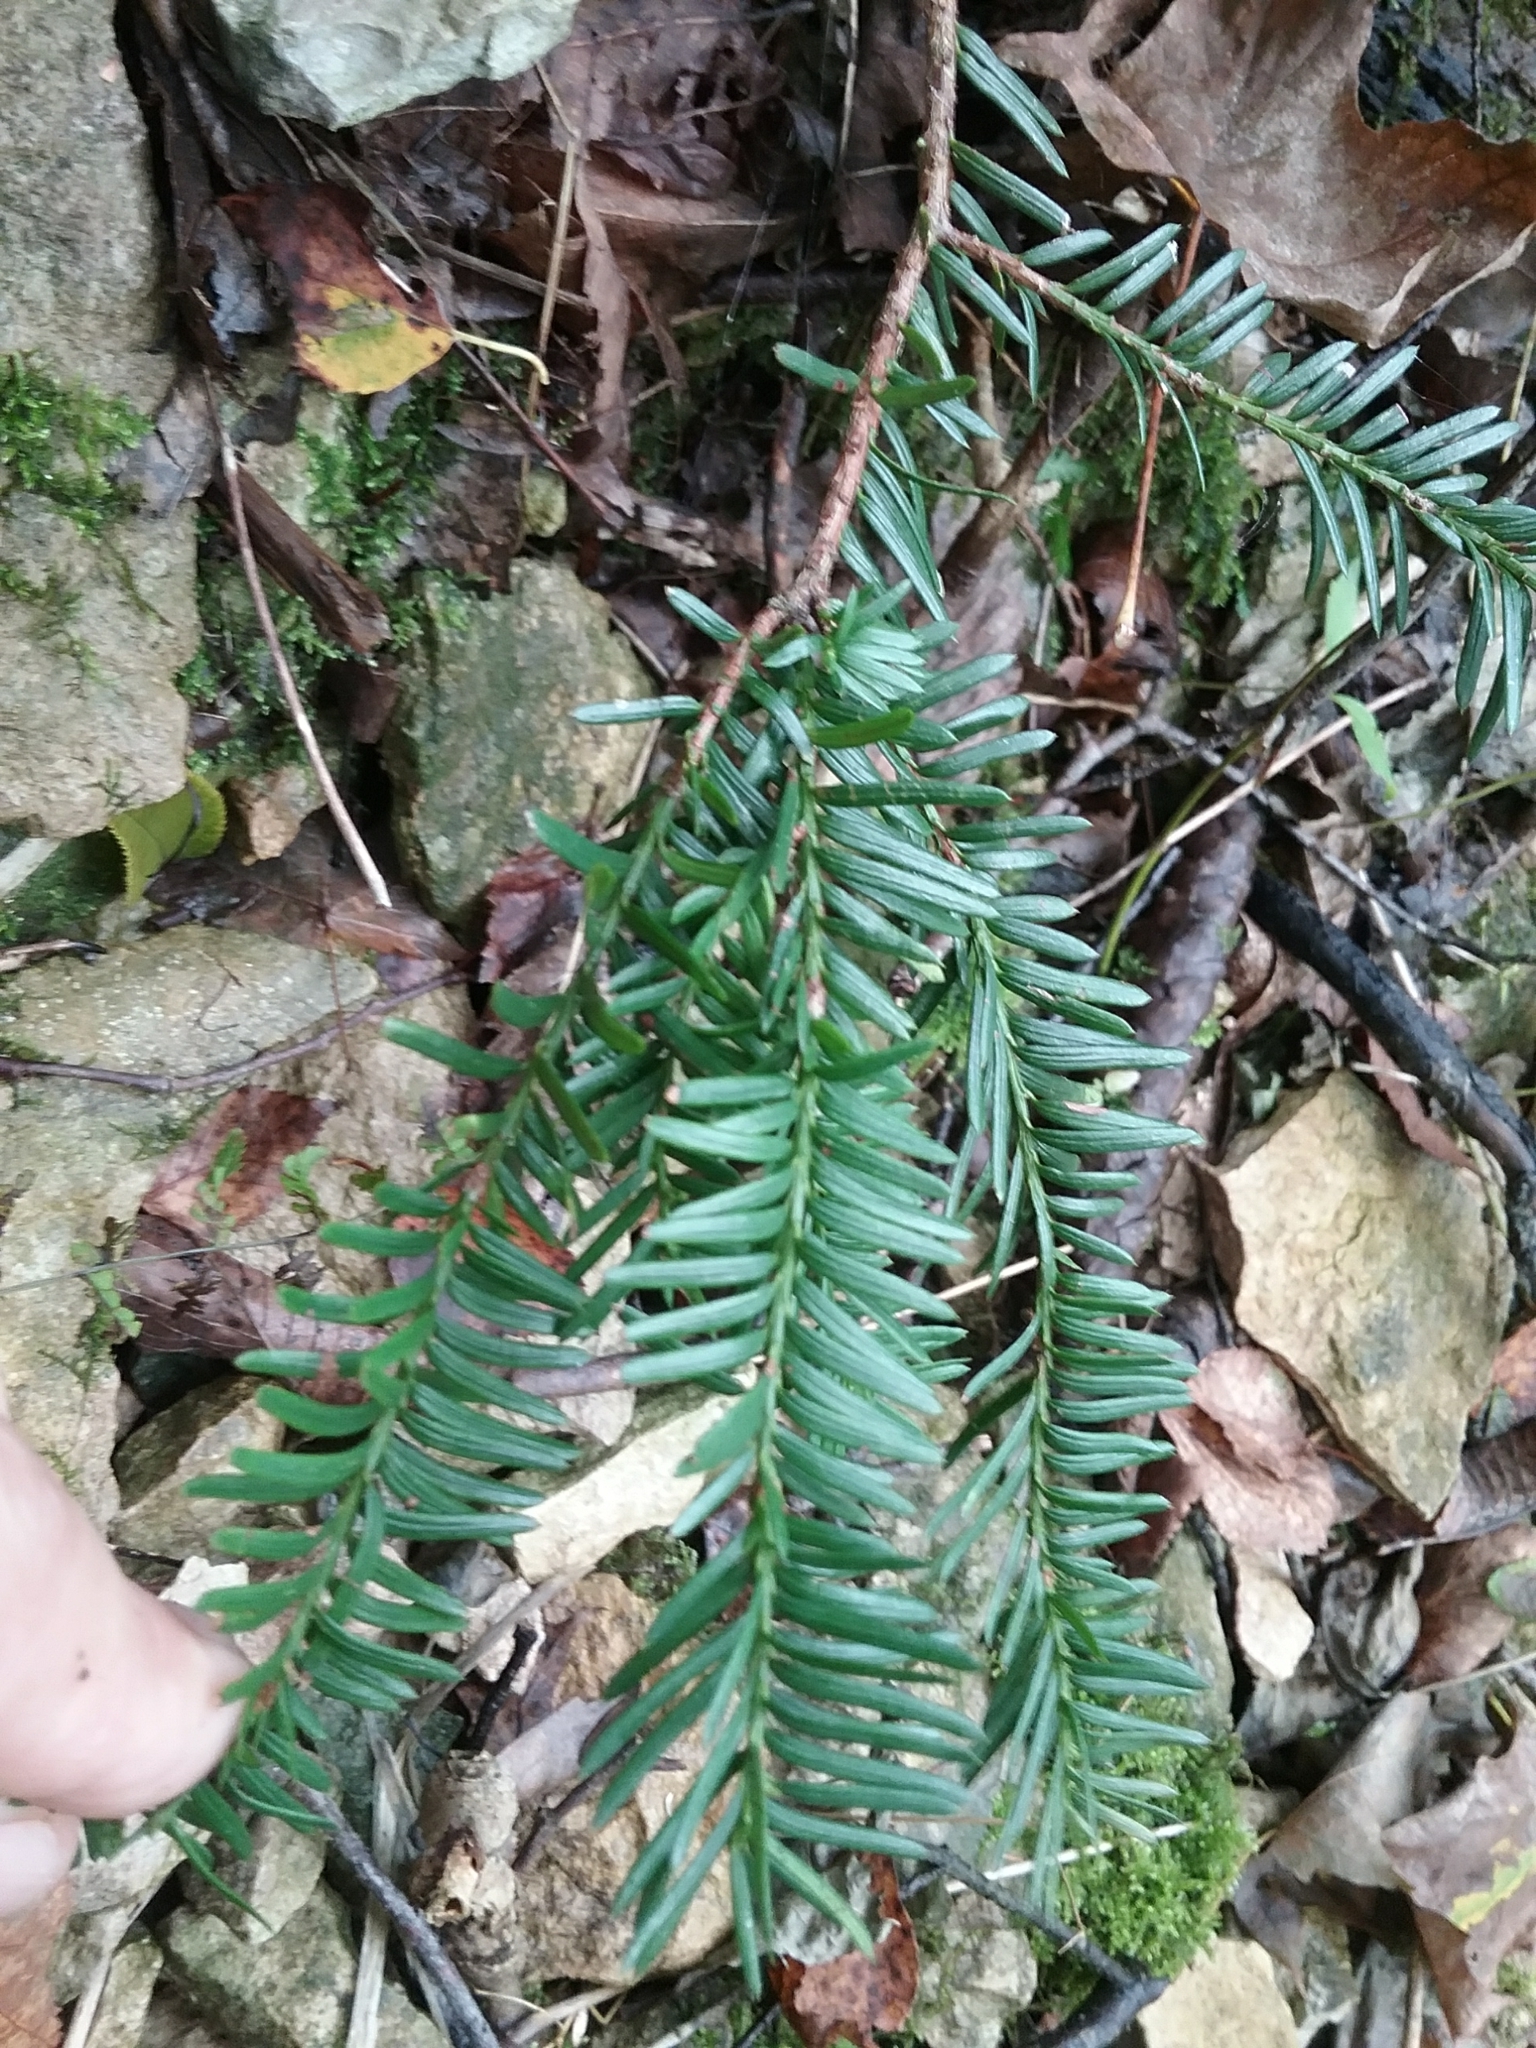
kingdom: Plantae
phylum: Tracheophyta
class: Pinopsida
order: Pinales
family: Taxaceae
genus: Taxus
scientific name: Taxus canadensis
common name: American yew
